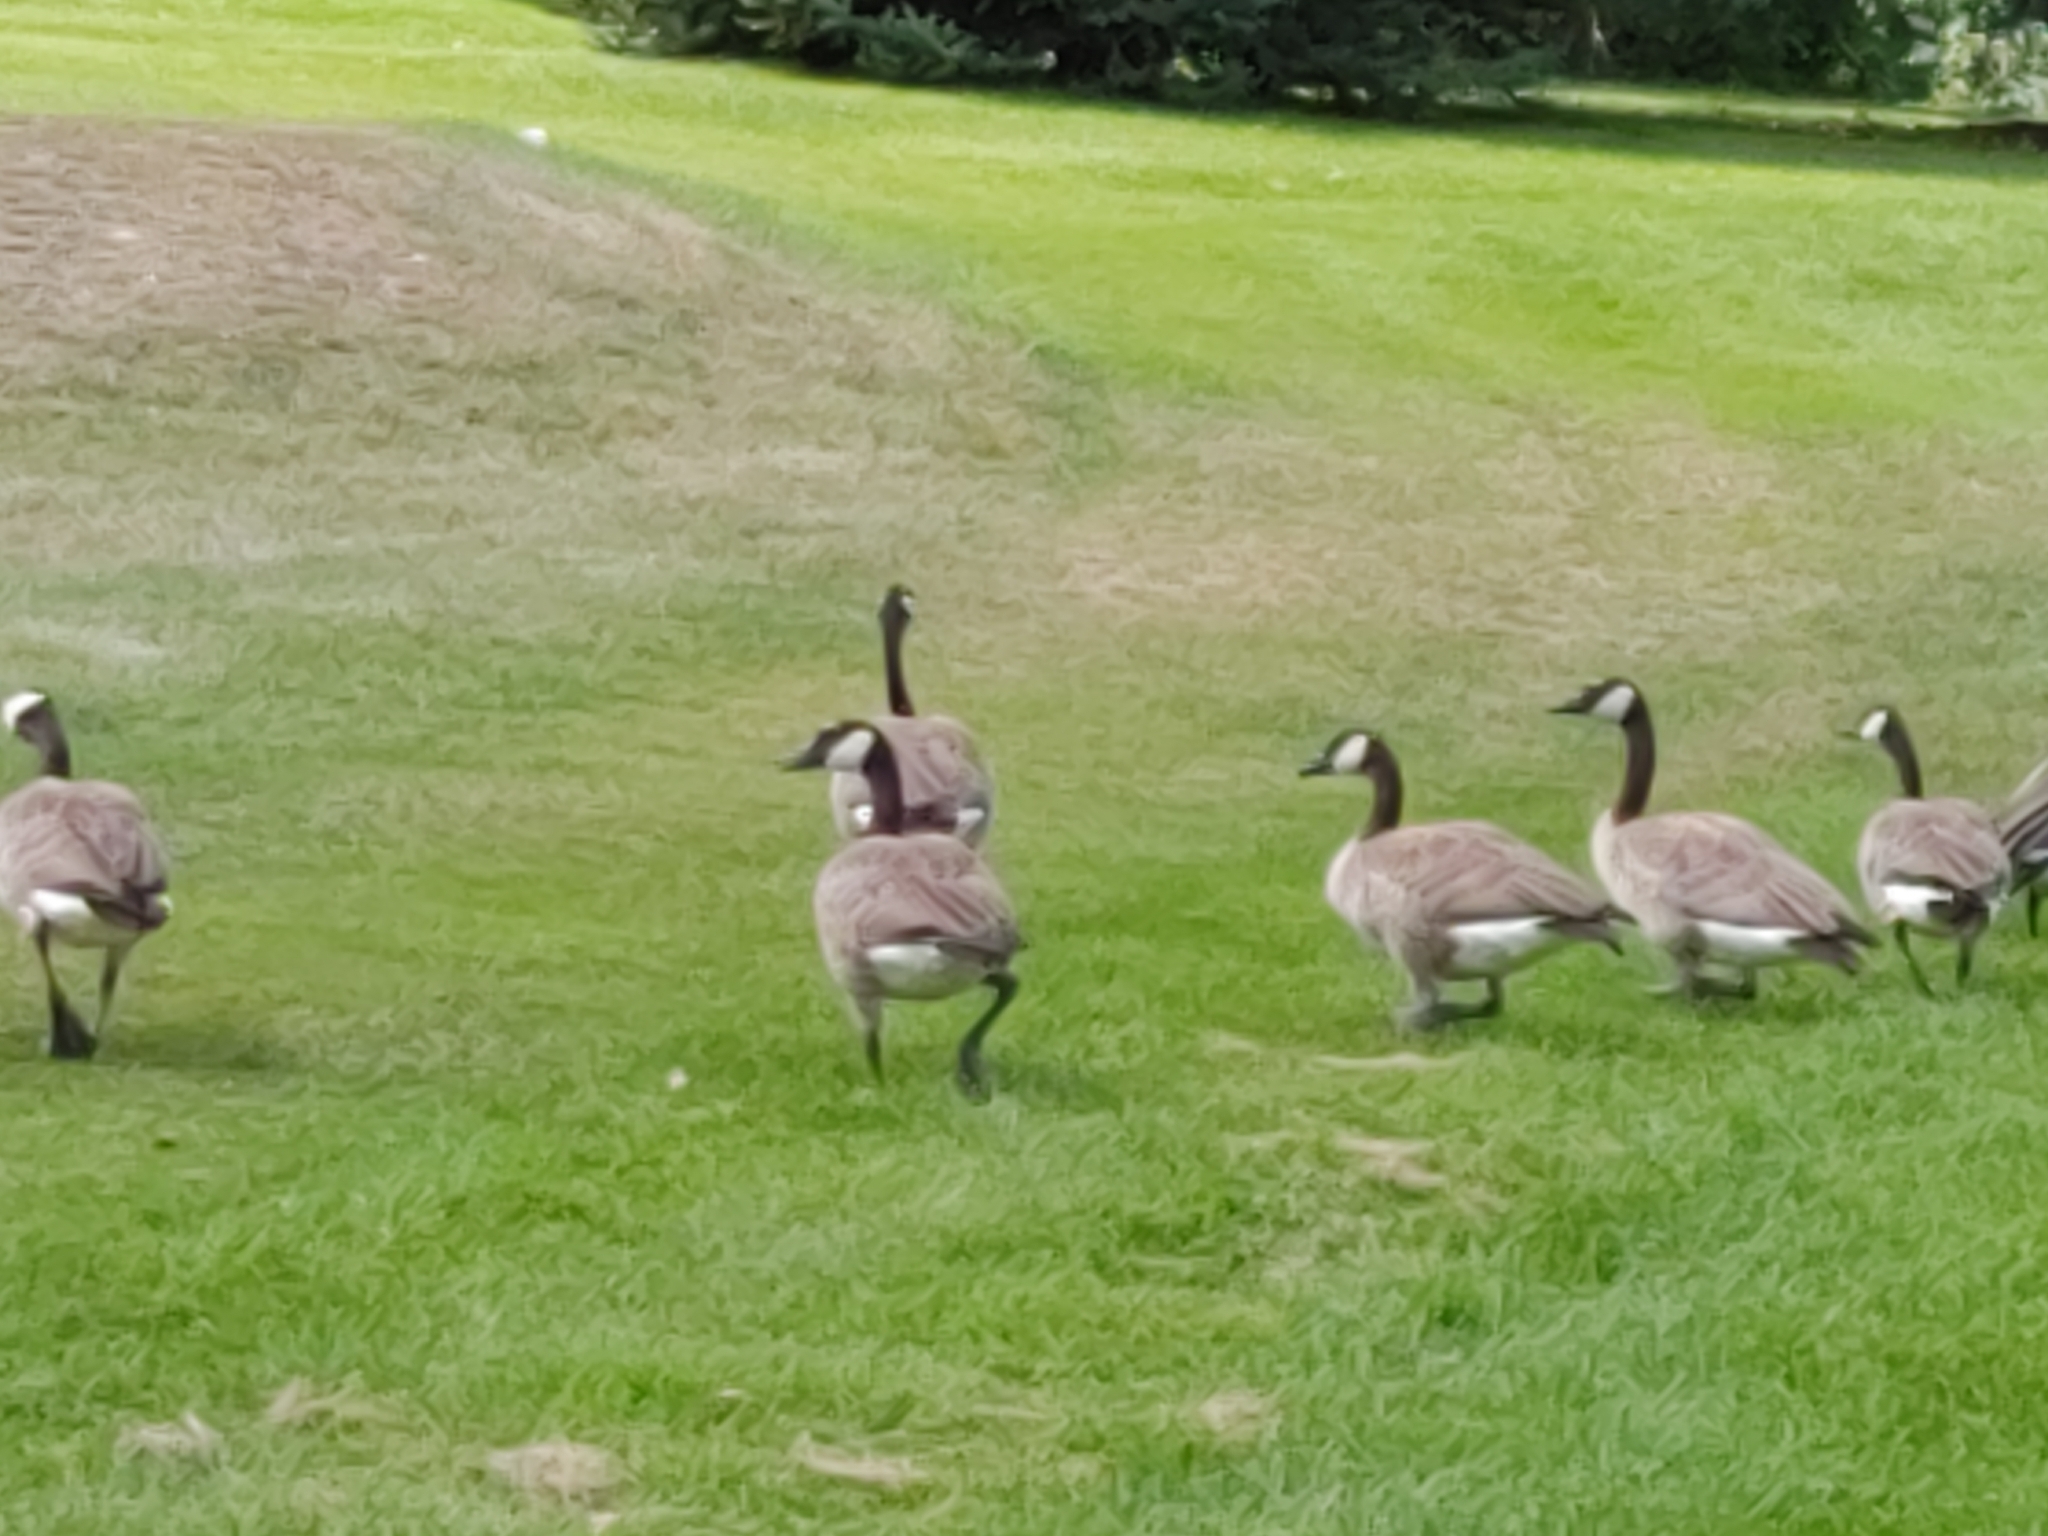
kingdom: Animalia
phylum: Chordata
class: Aves
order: Anseriformes
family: Anatidae
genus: Branta
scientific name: Branta canadensis
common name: Canada goose
